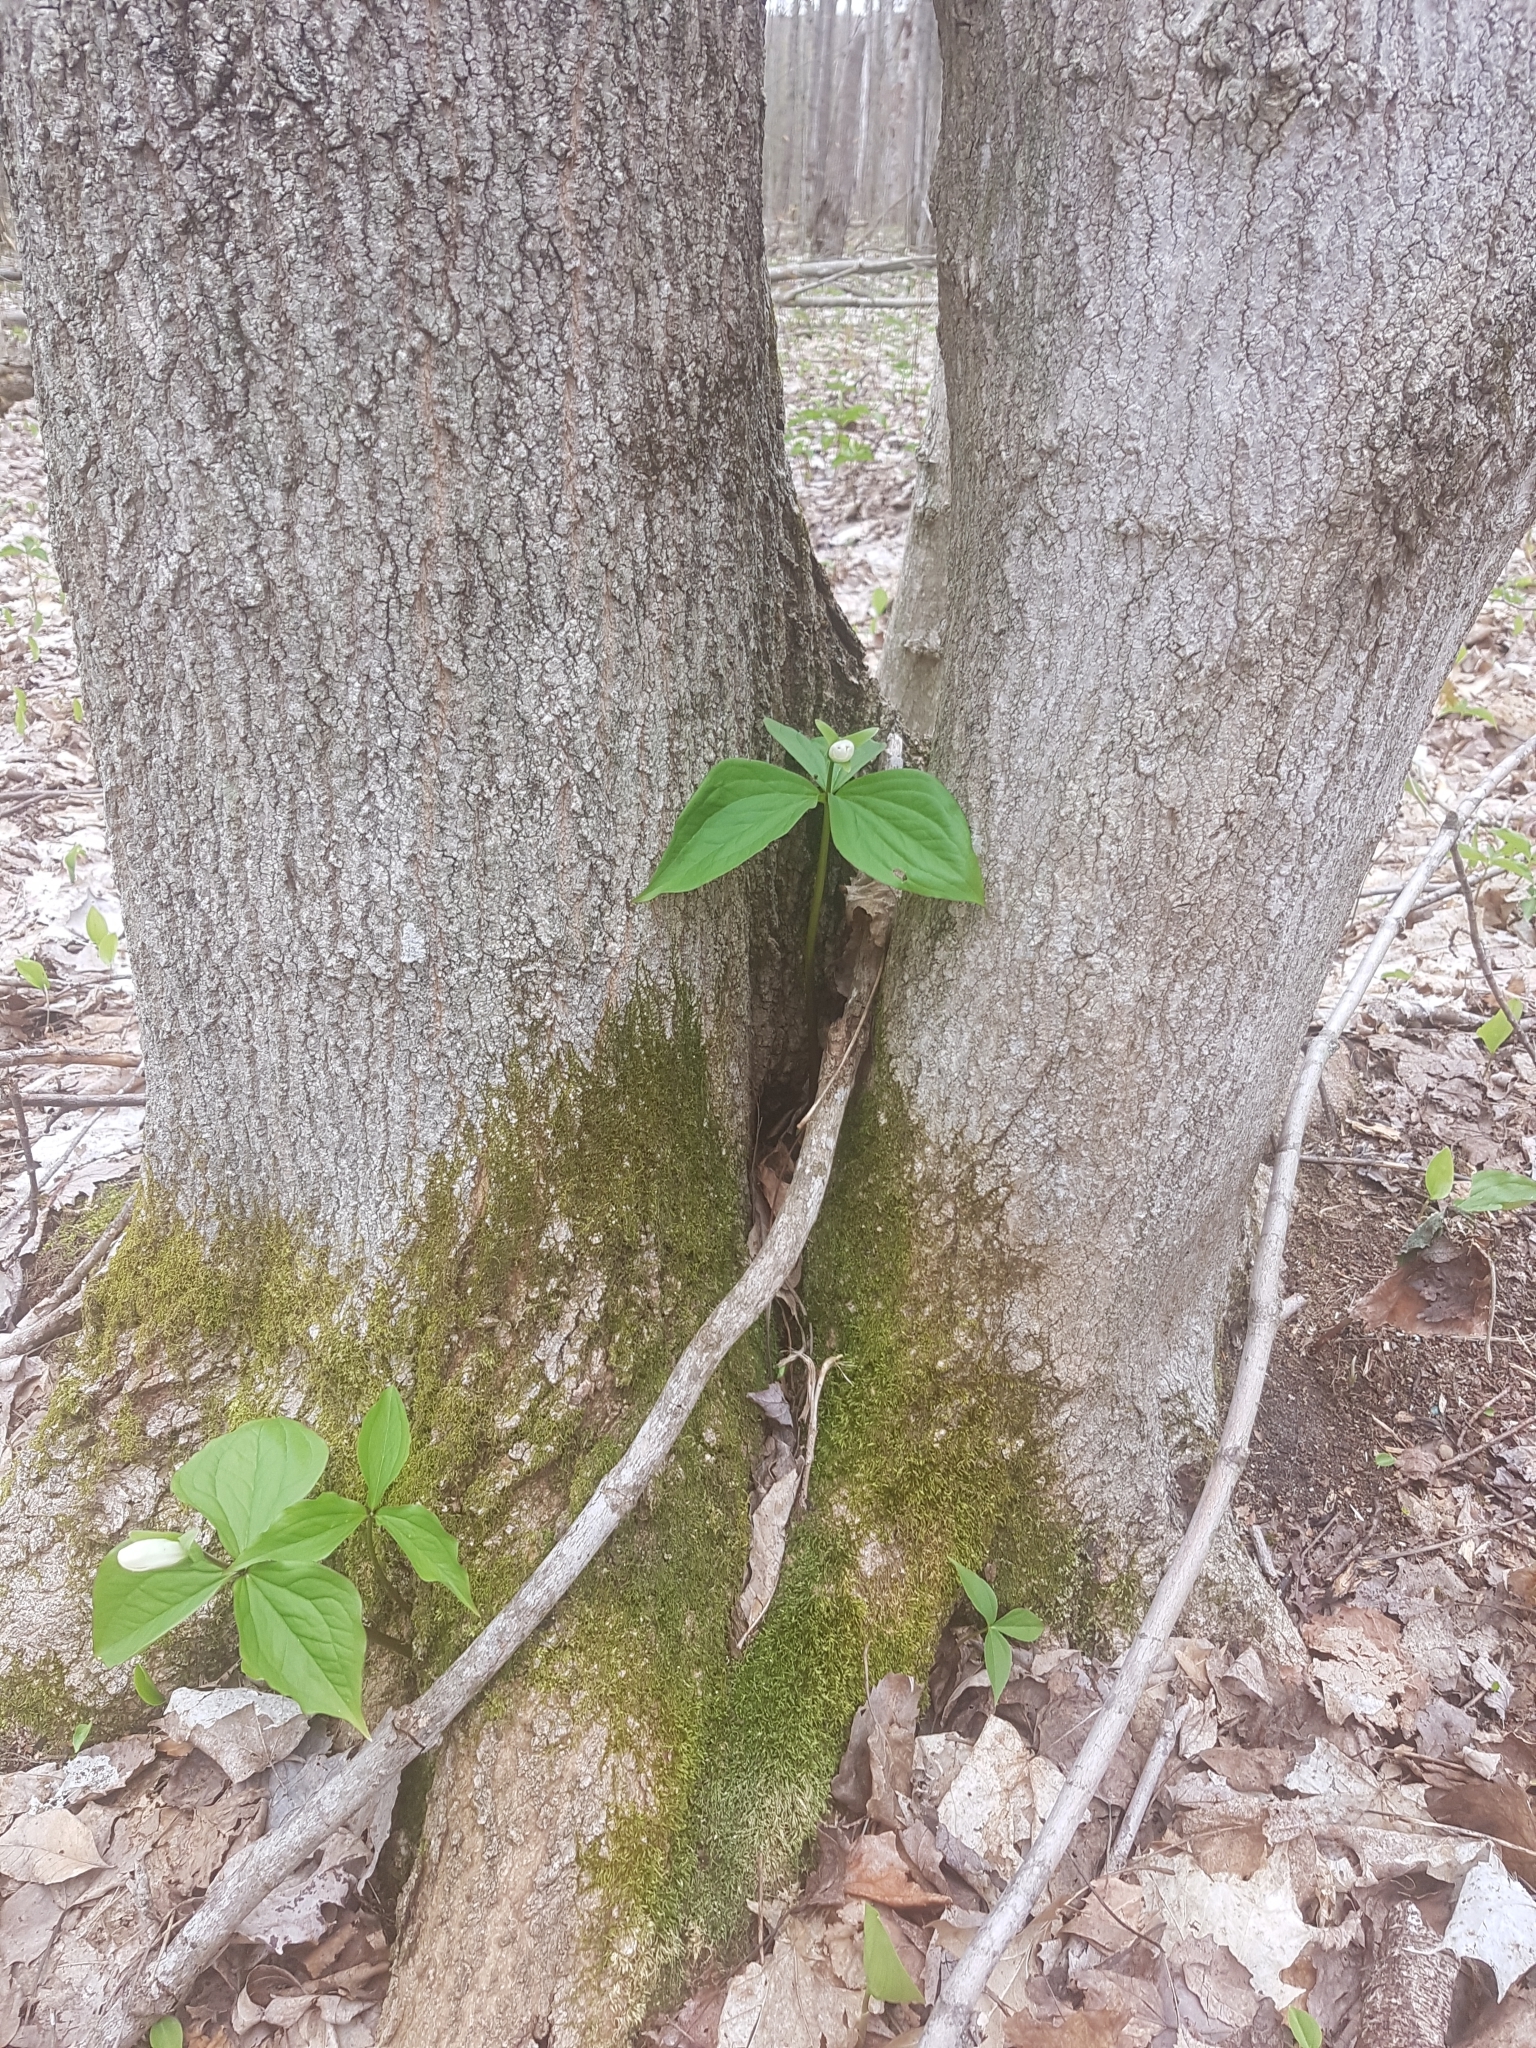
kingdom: Plantae
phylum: Tracheophyta
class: Liliopsida
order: Liliales
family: Melanthiaceae
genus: Trillium
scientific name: Trillium grandiflorum
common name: Great white trillium
